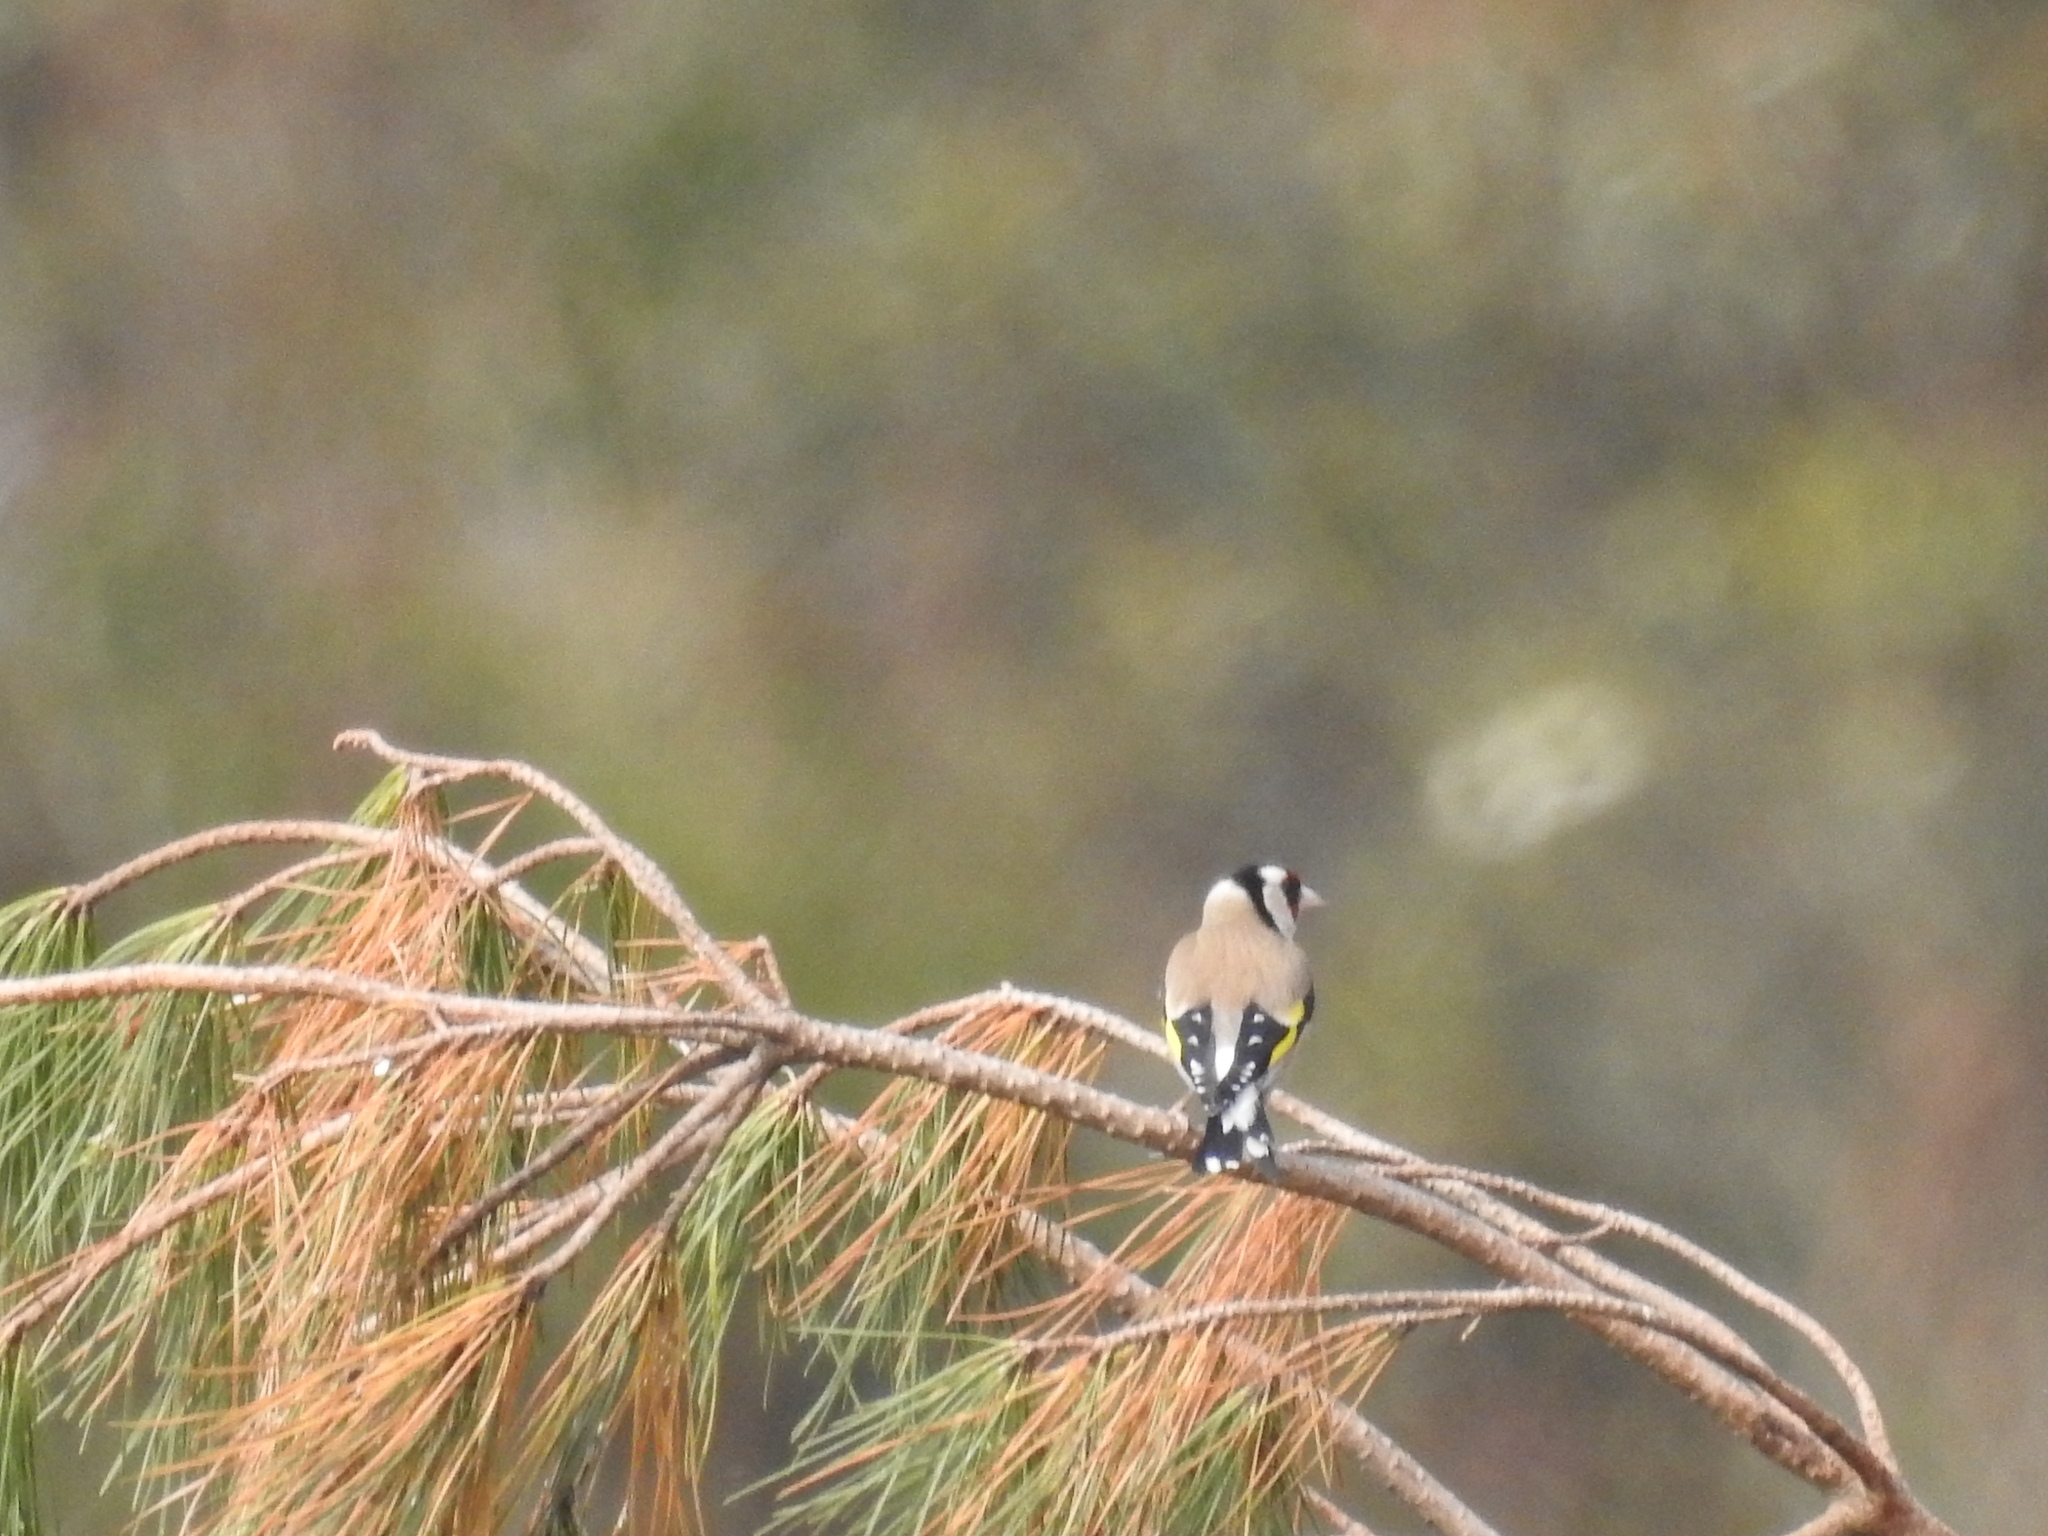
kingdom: Animalia
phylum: Chordata
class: Aves
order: Passeriformes
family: Fringillidae
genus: Carduelis
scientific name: Carduelis carduelis
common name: European goldfinch
